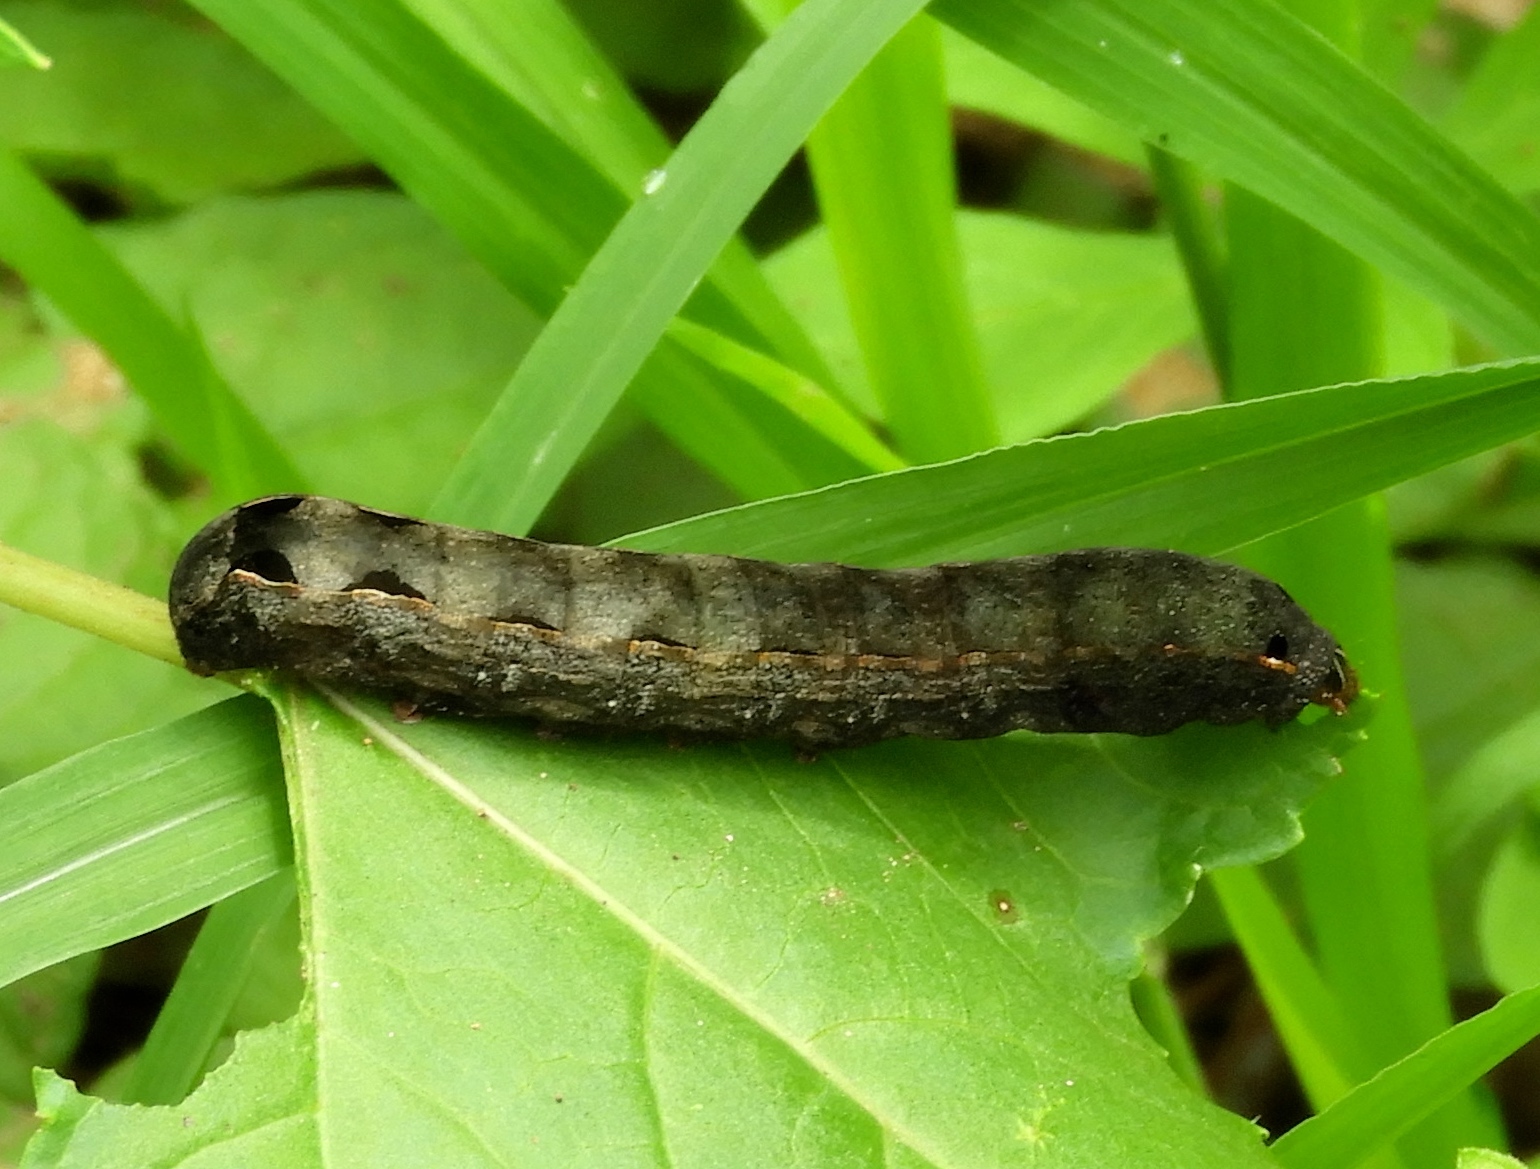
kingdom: Animalia
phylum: Arthropoda
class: Insecta
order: Lepidoptera
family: Noctuidae
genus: Spodoptera
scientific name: Spodoptera
